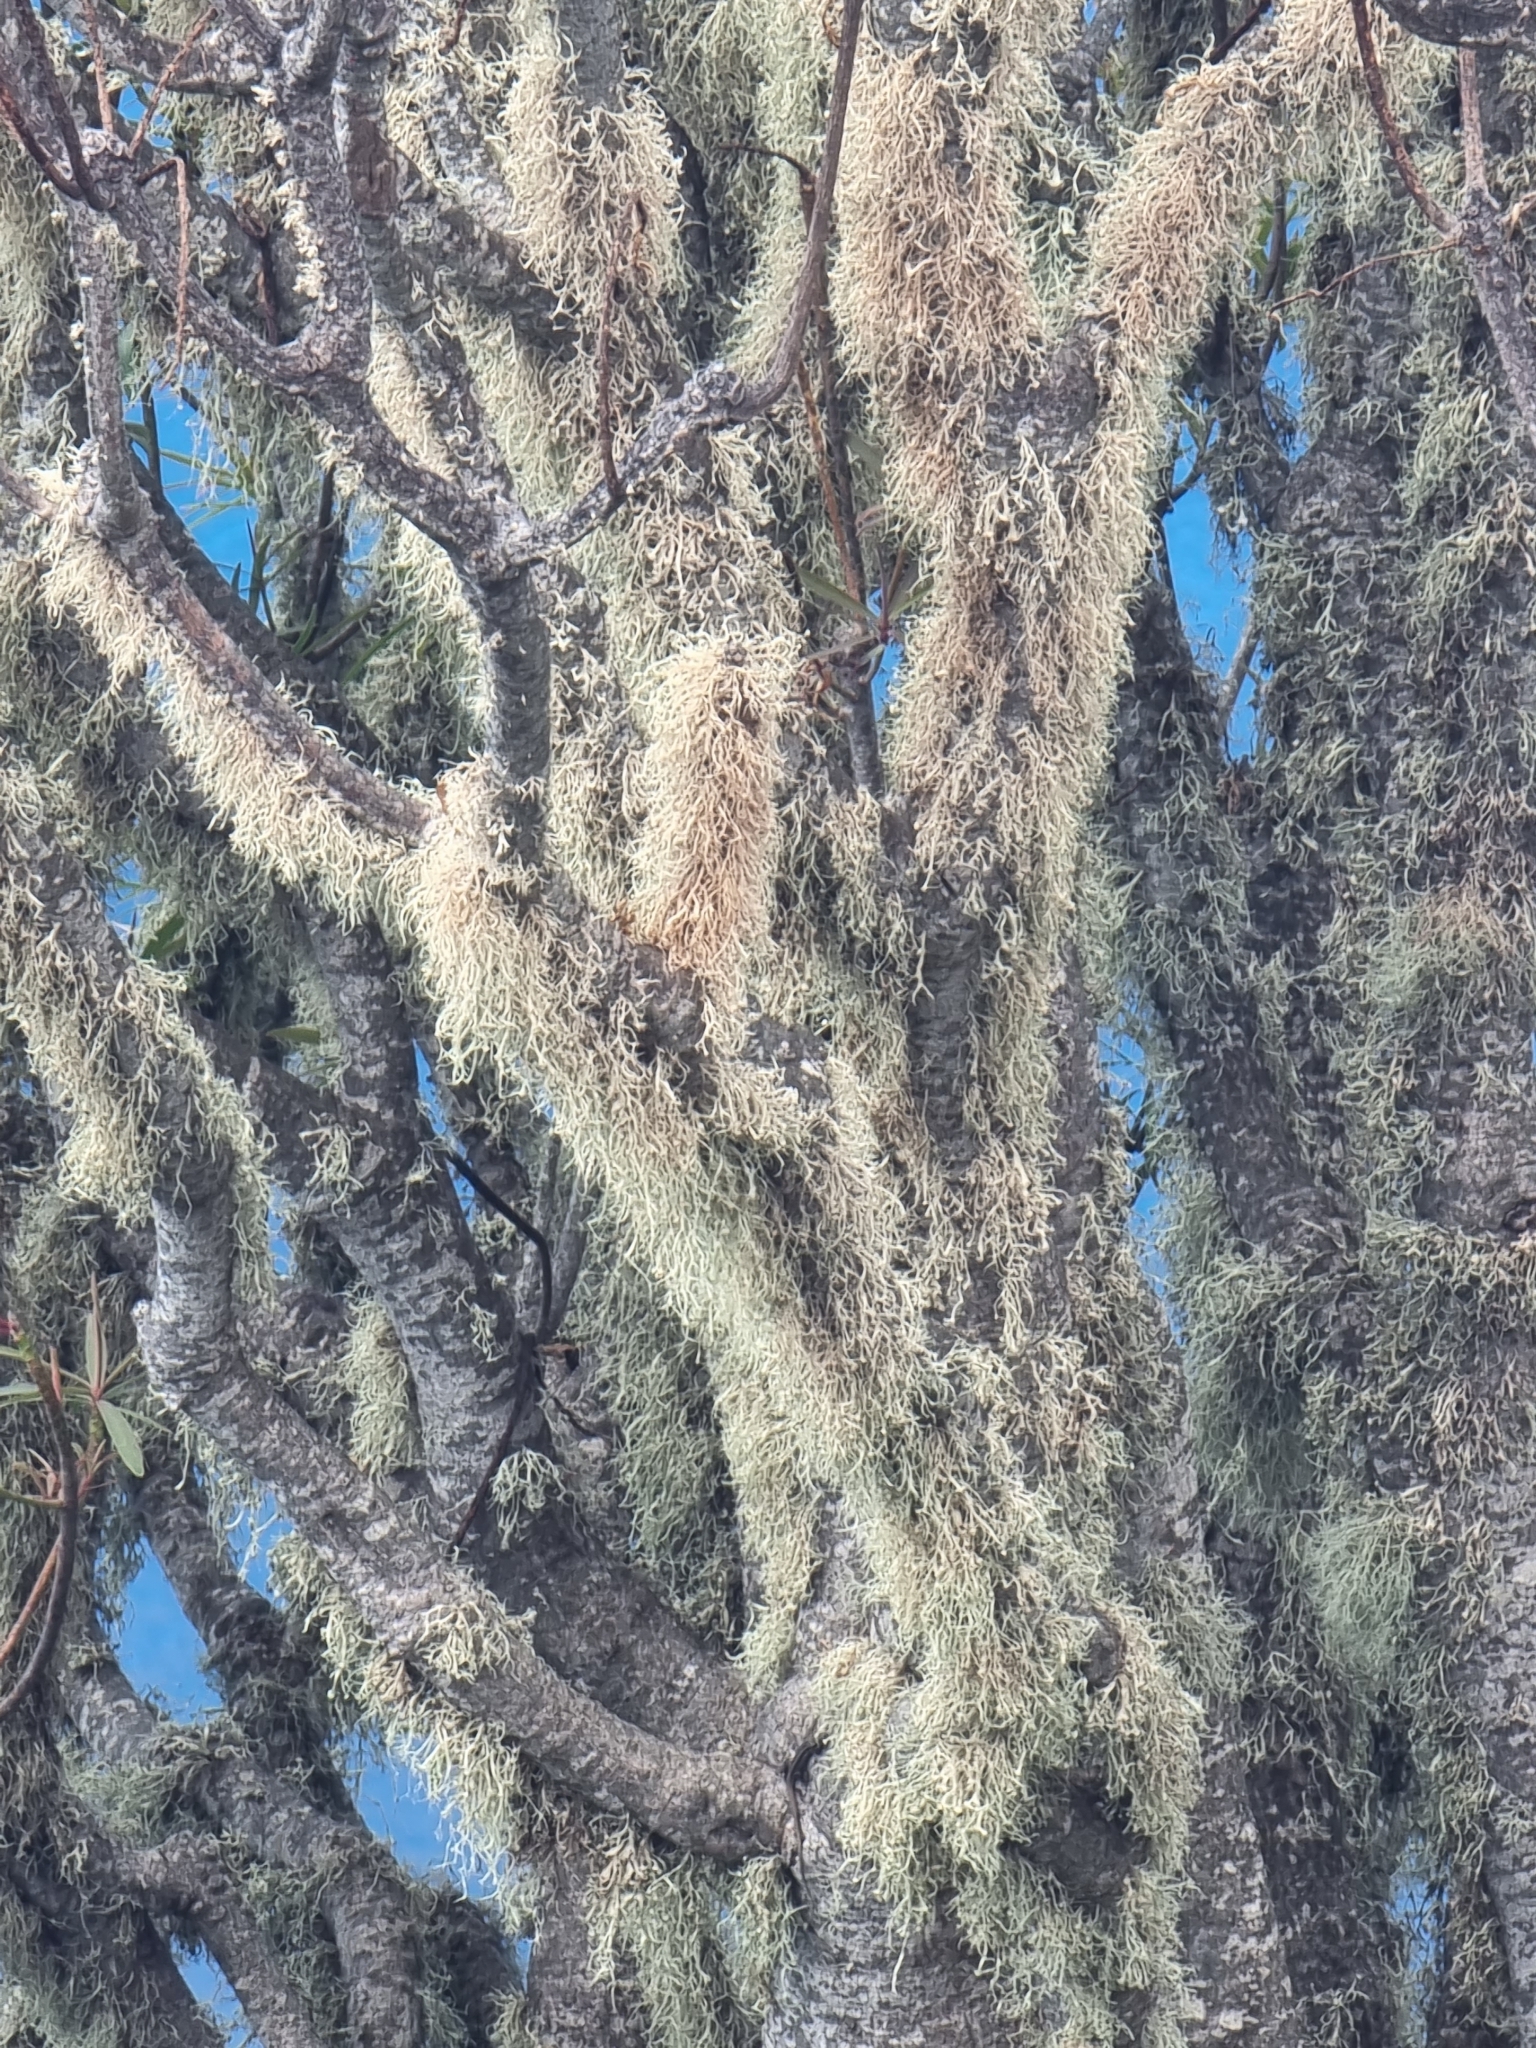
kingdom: Plantae
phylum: Tracheophyta
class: Magnoliopsida
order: Malpighiales
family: Euphorbiaceae
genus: Euphorbia
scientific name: Euphorbia piscatoria
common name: Fish-stunning spurge
